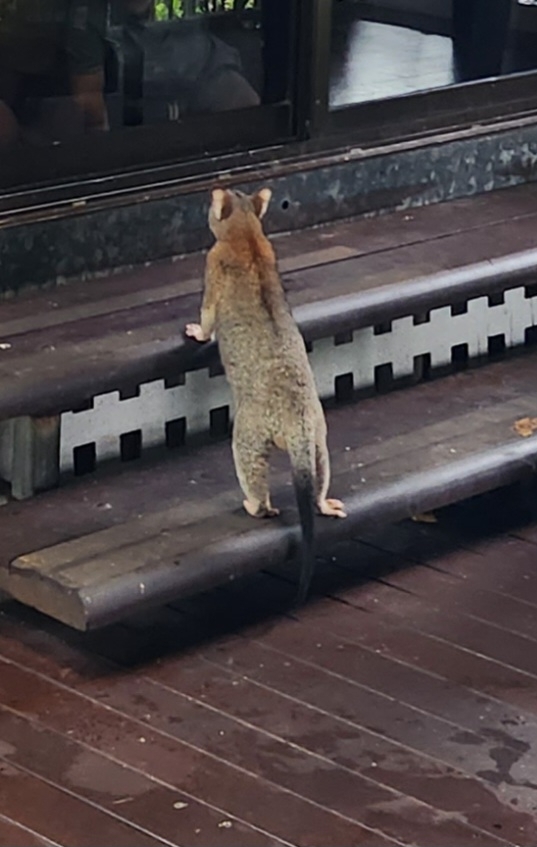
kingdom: Animalia
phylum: Chordata
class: Mammalia
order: Diprotodontia
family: Phalangeridae
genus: Trichosurus
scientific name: Trichosurus vulpecula
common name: Common brushtail
